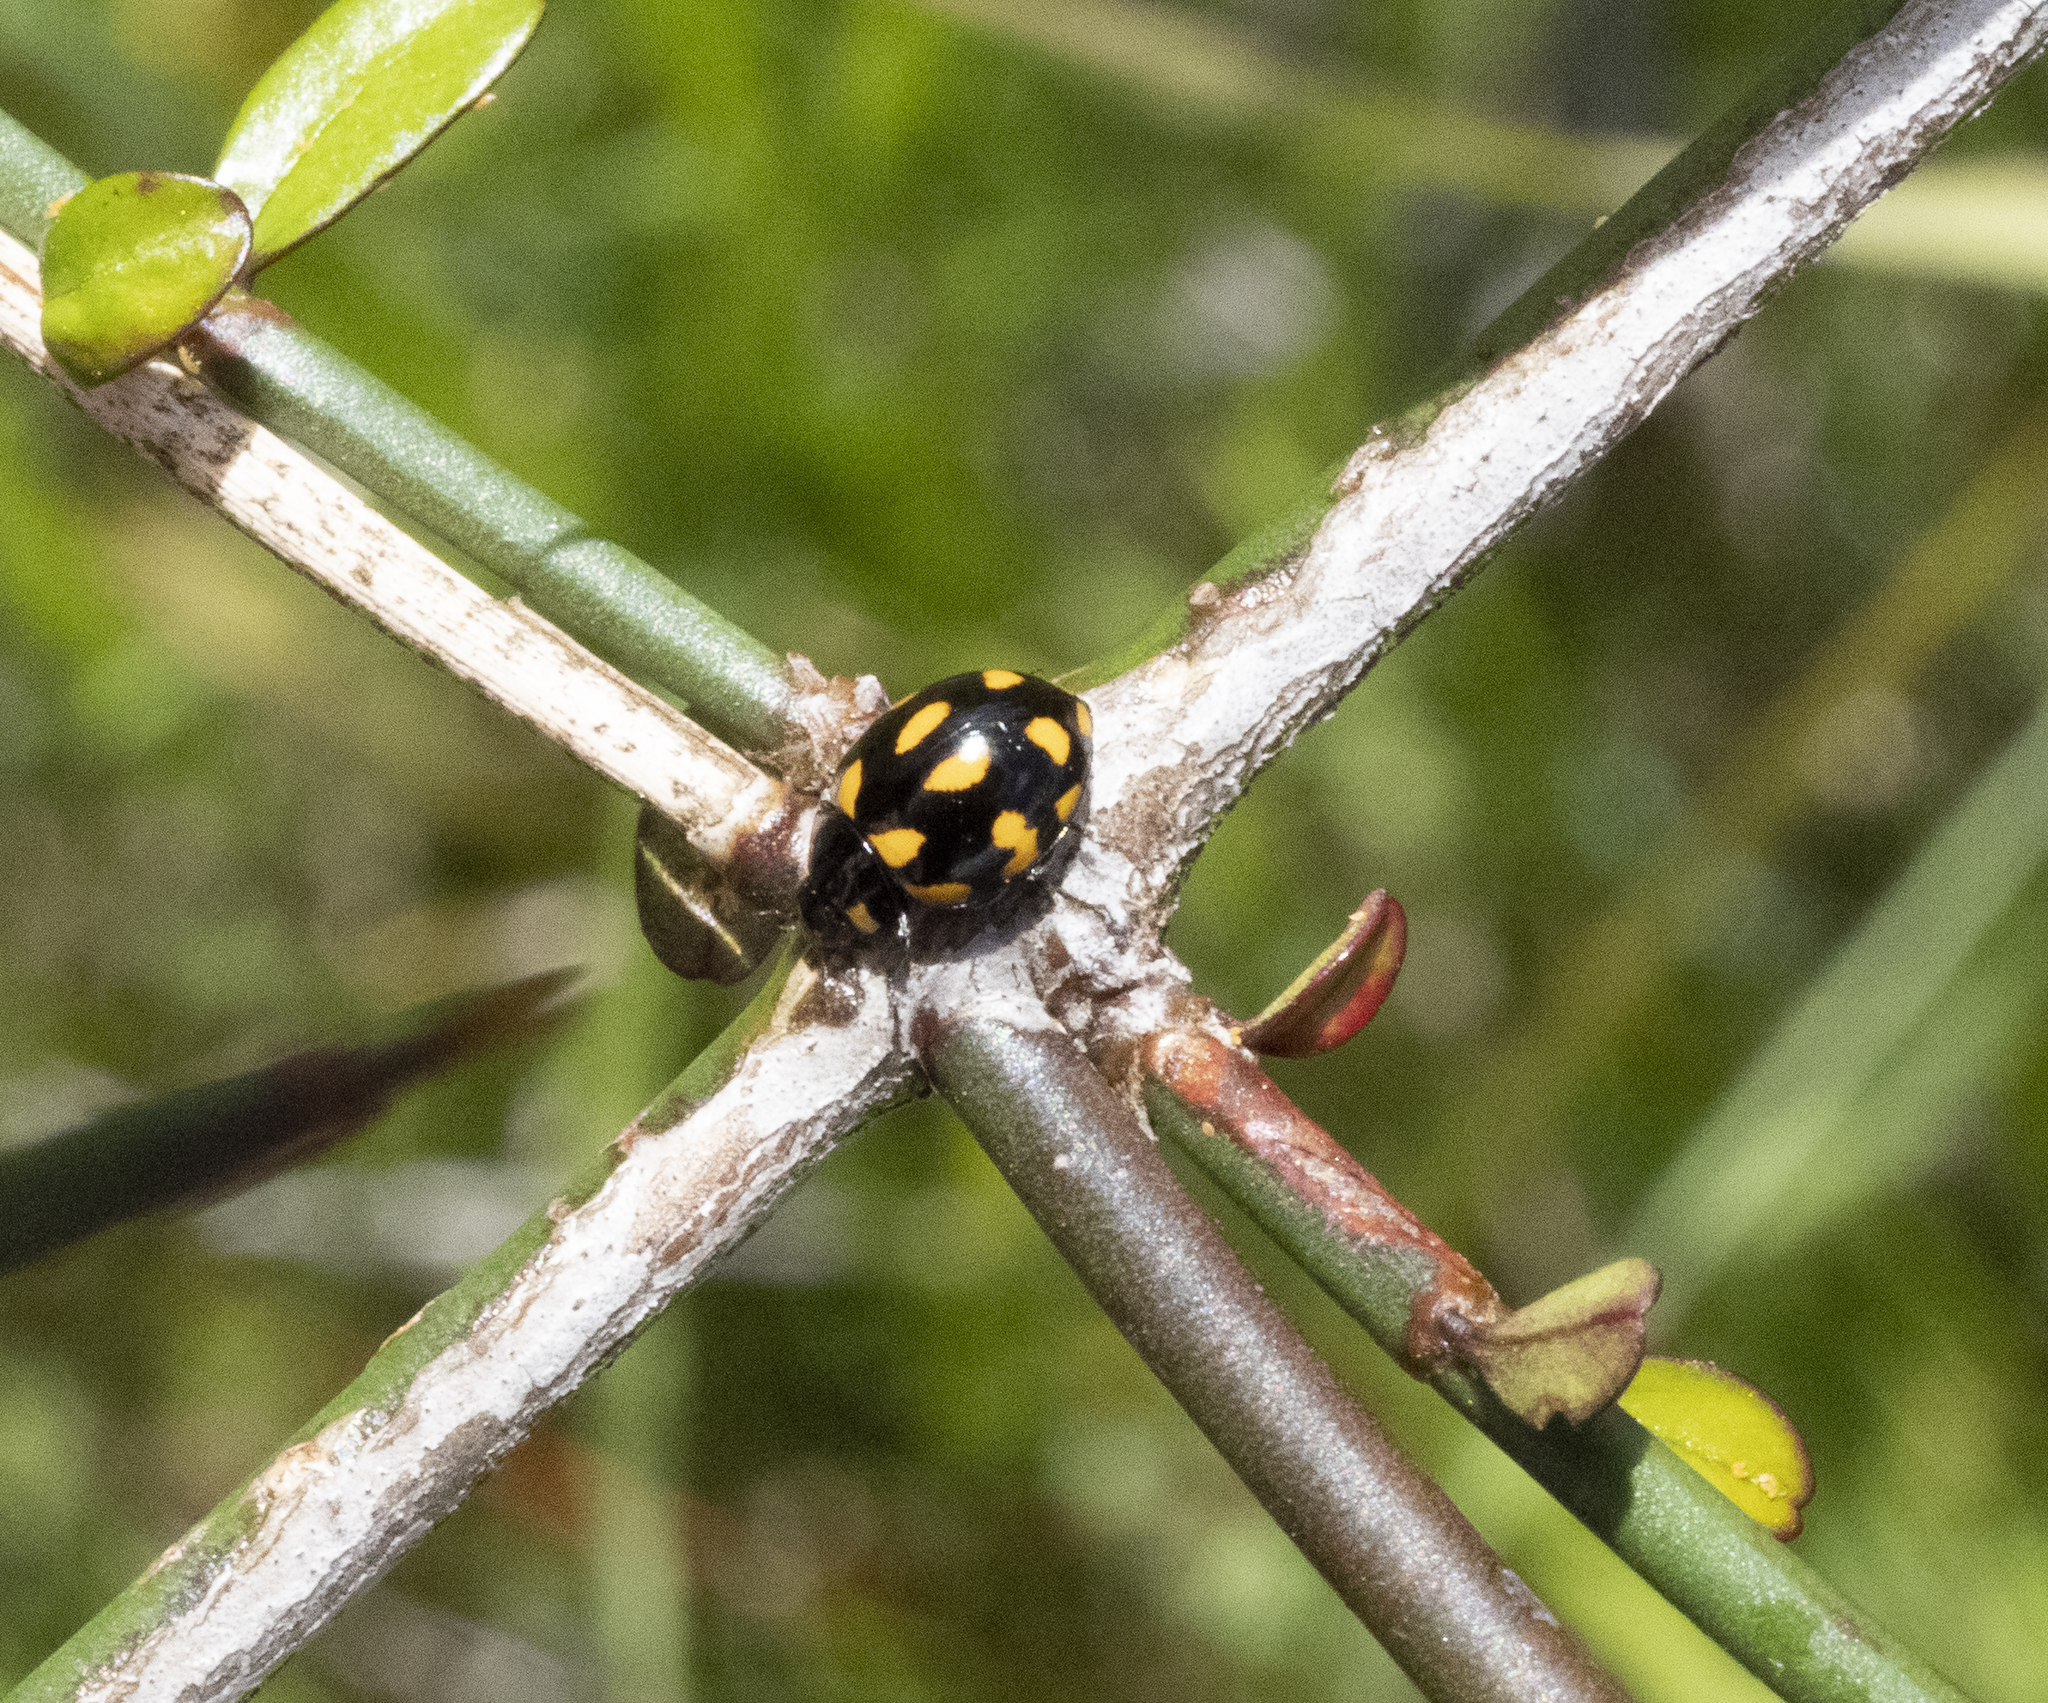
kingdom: Animalia
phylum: Arthropoda
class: Insecta
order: Coleoptera
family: Coccinellidae
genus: Coccinella
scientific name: Coccinella leonina
